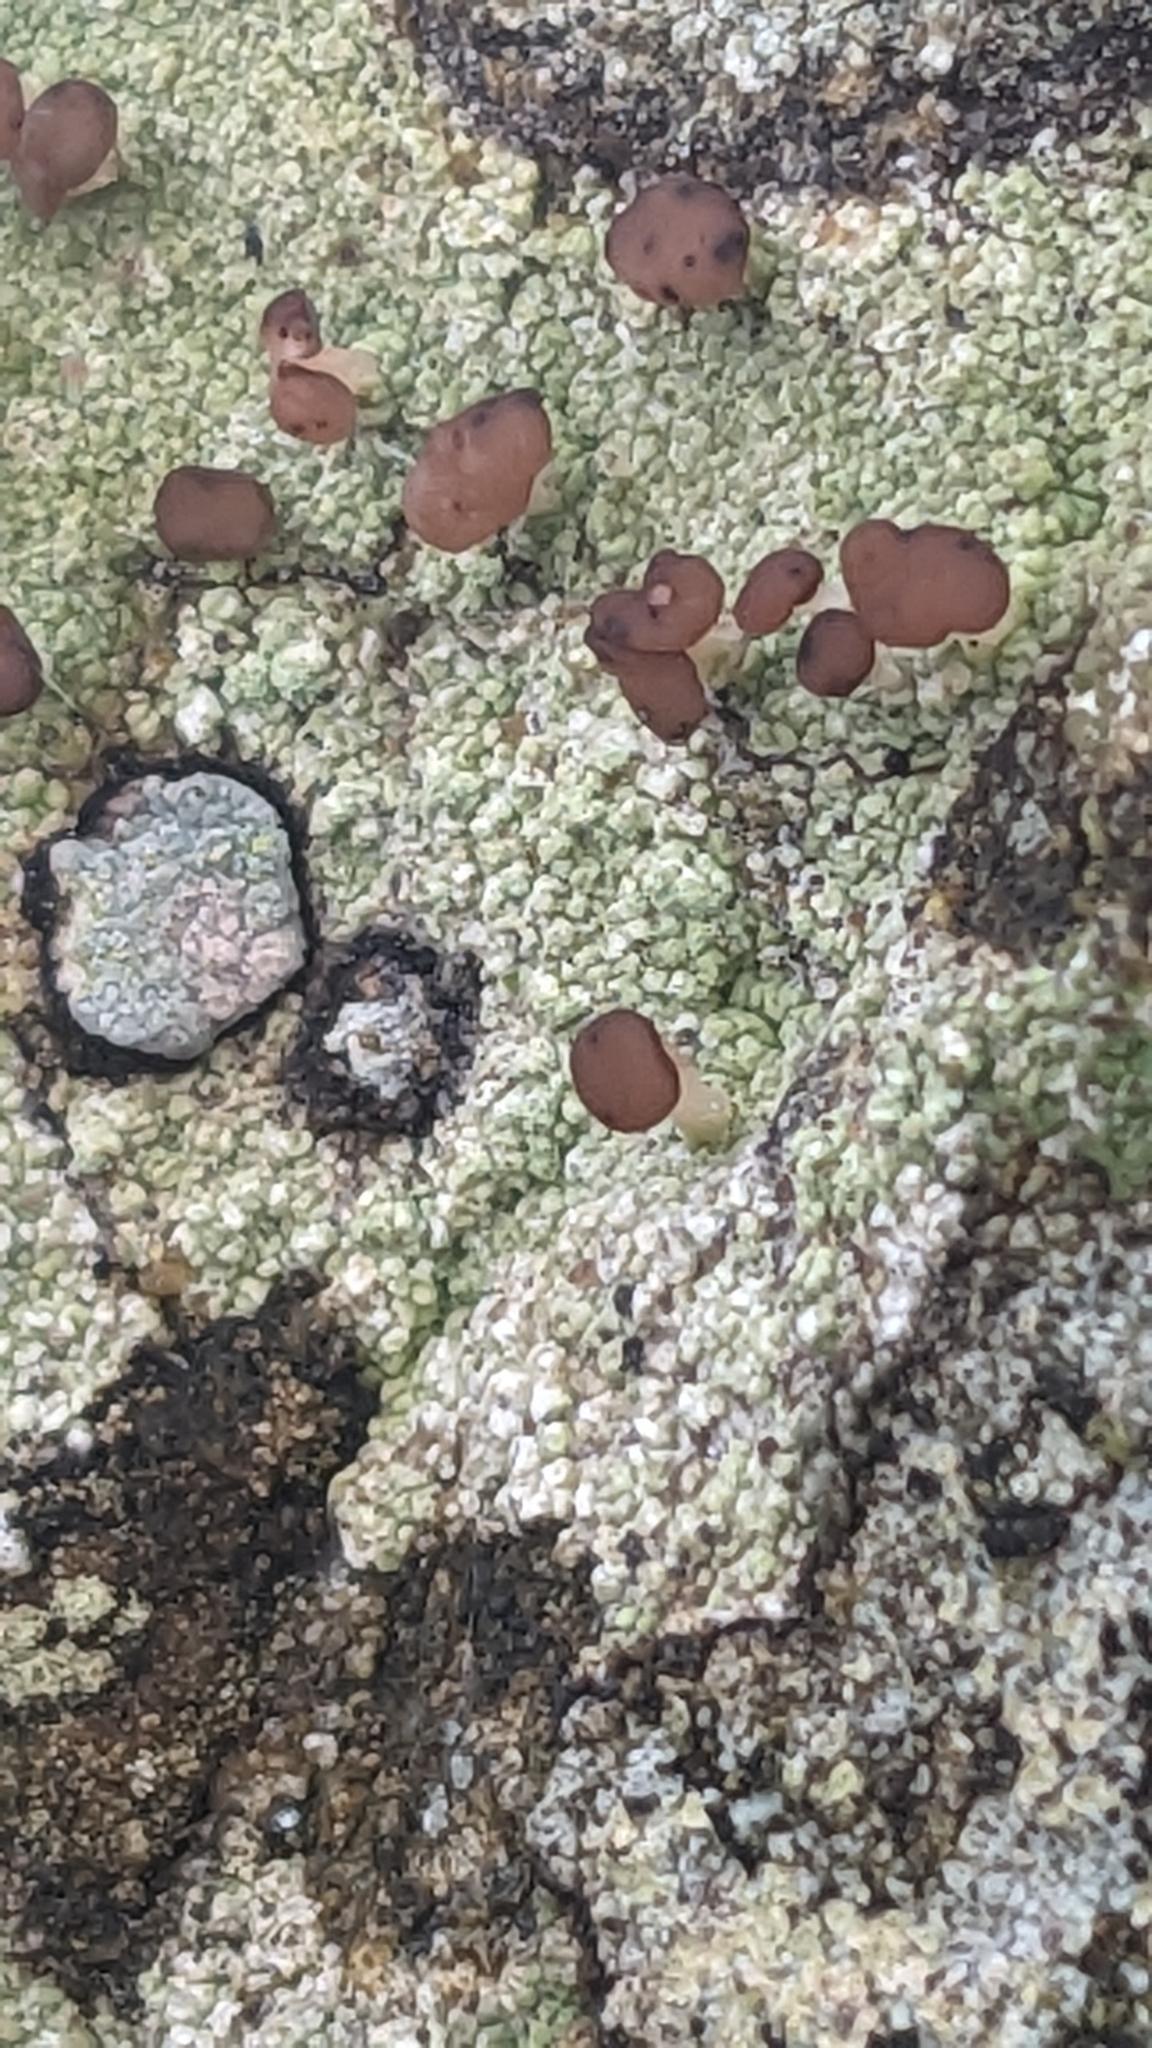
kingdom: Fungi
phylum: Ascomycota
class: Lecanoromycetes
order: Baeomycetales
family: Baeomycetaceae
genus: Baeomyces
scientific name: Baeomyces rufus
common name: Brown beret lichen
